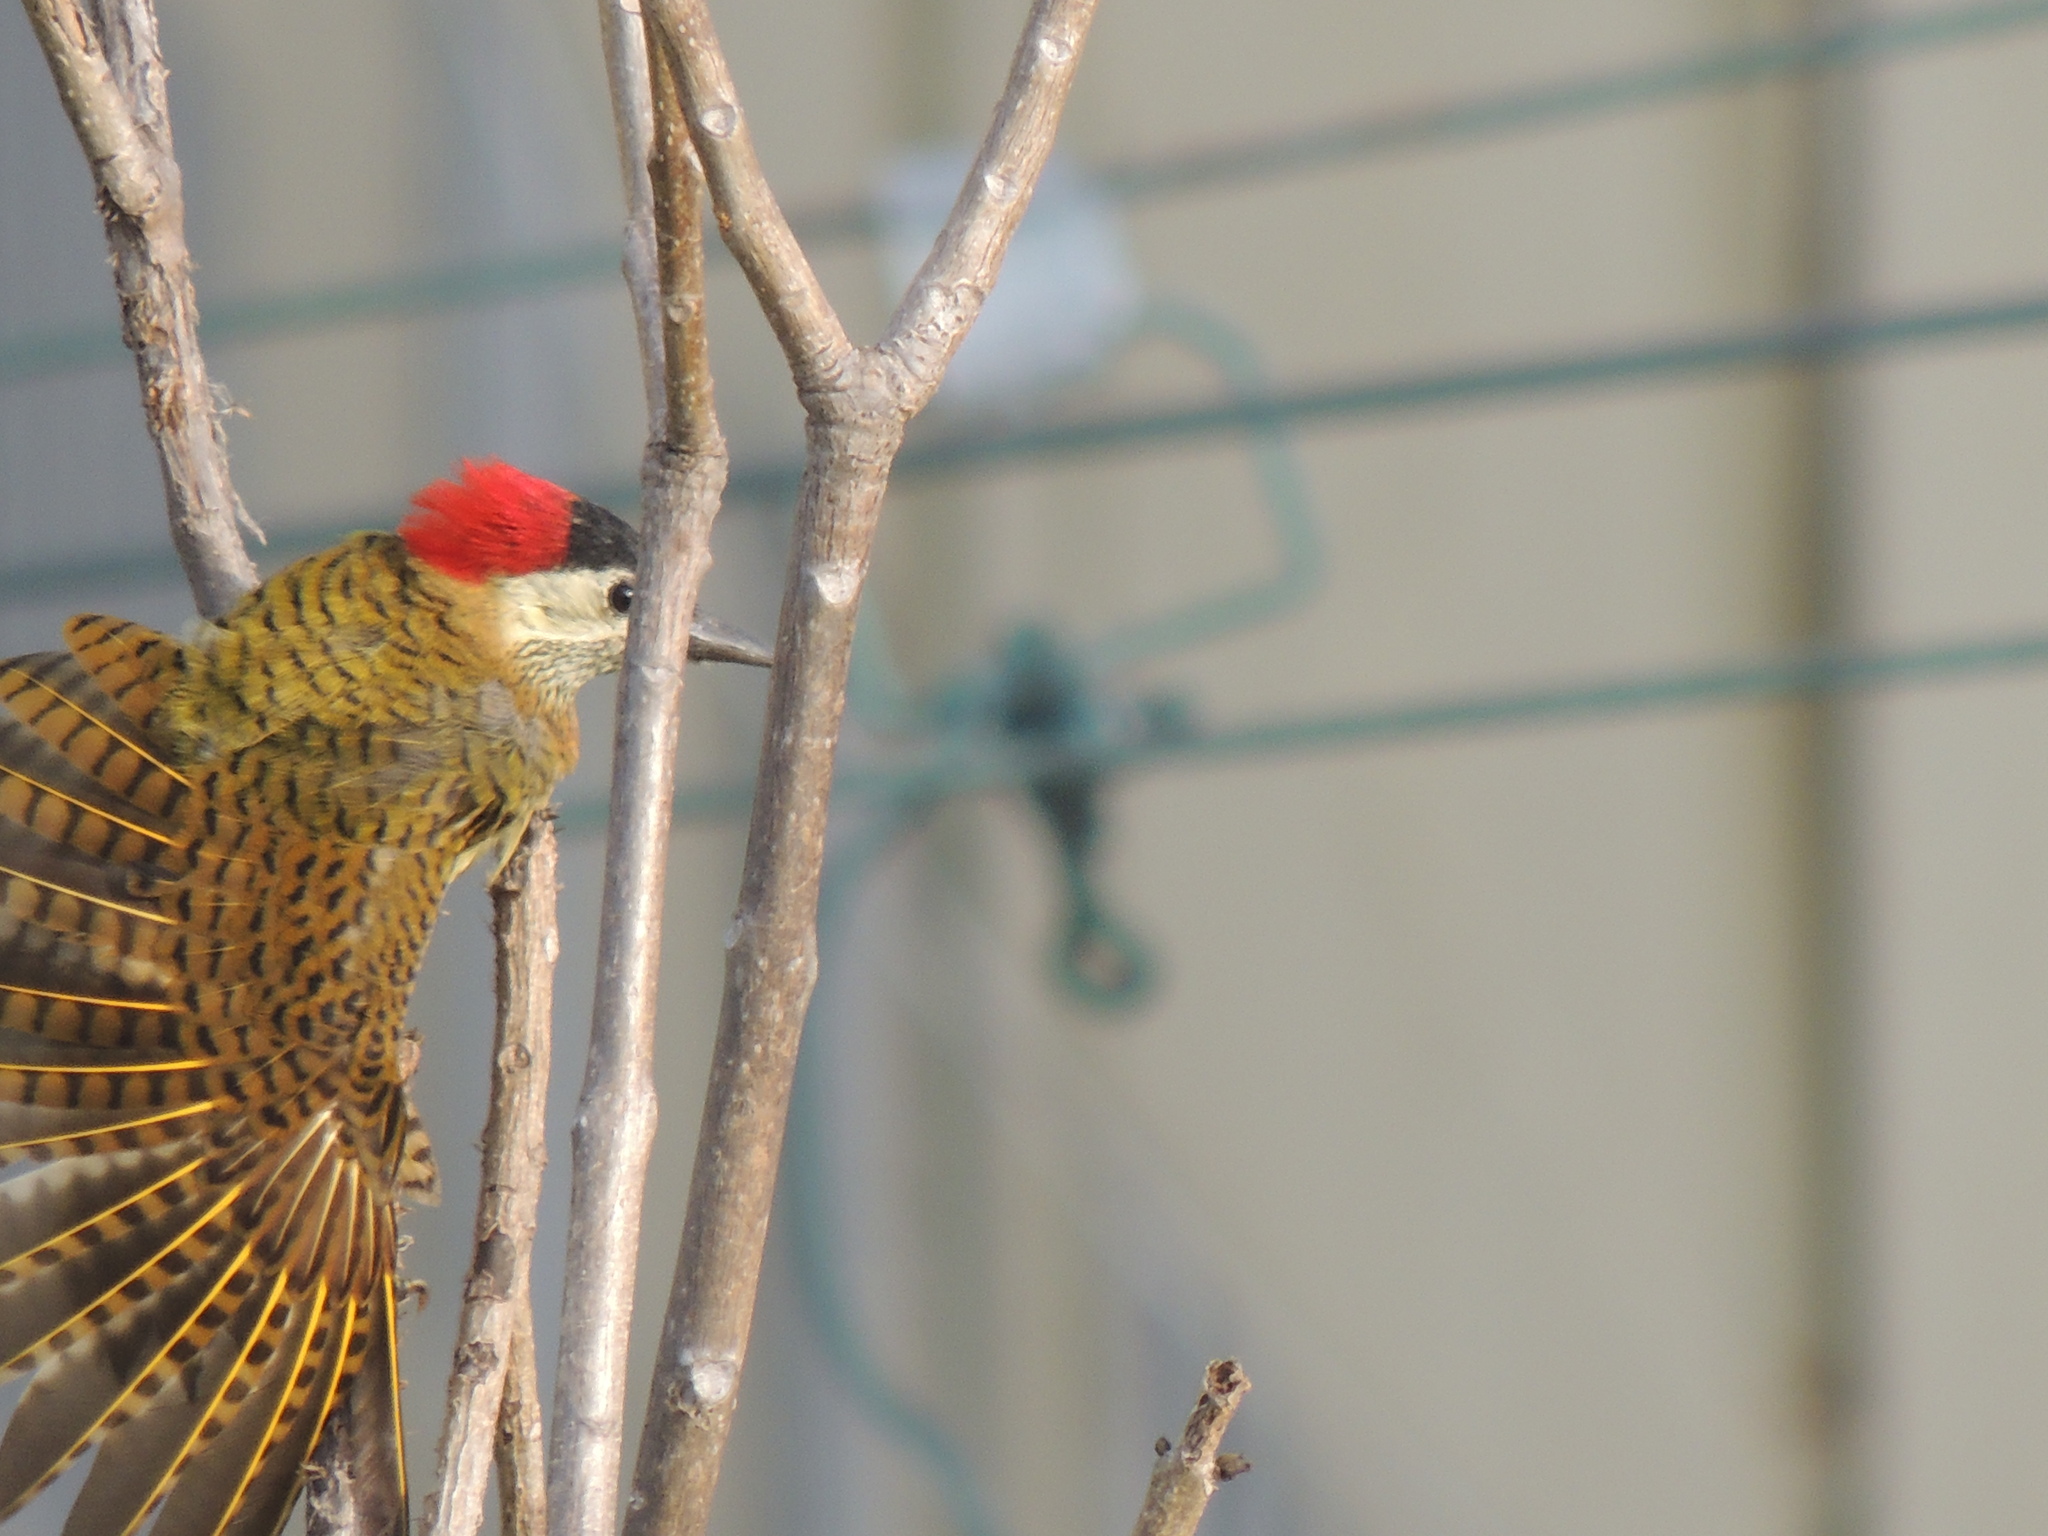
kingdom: Animalia
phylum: Chordata
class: Aves
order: Piciformes
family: Picidae
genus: Colaptes
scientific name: Colaptes punctigula
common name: Spot-breasted woodpecker
